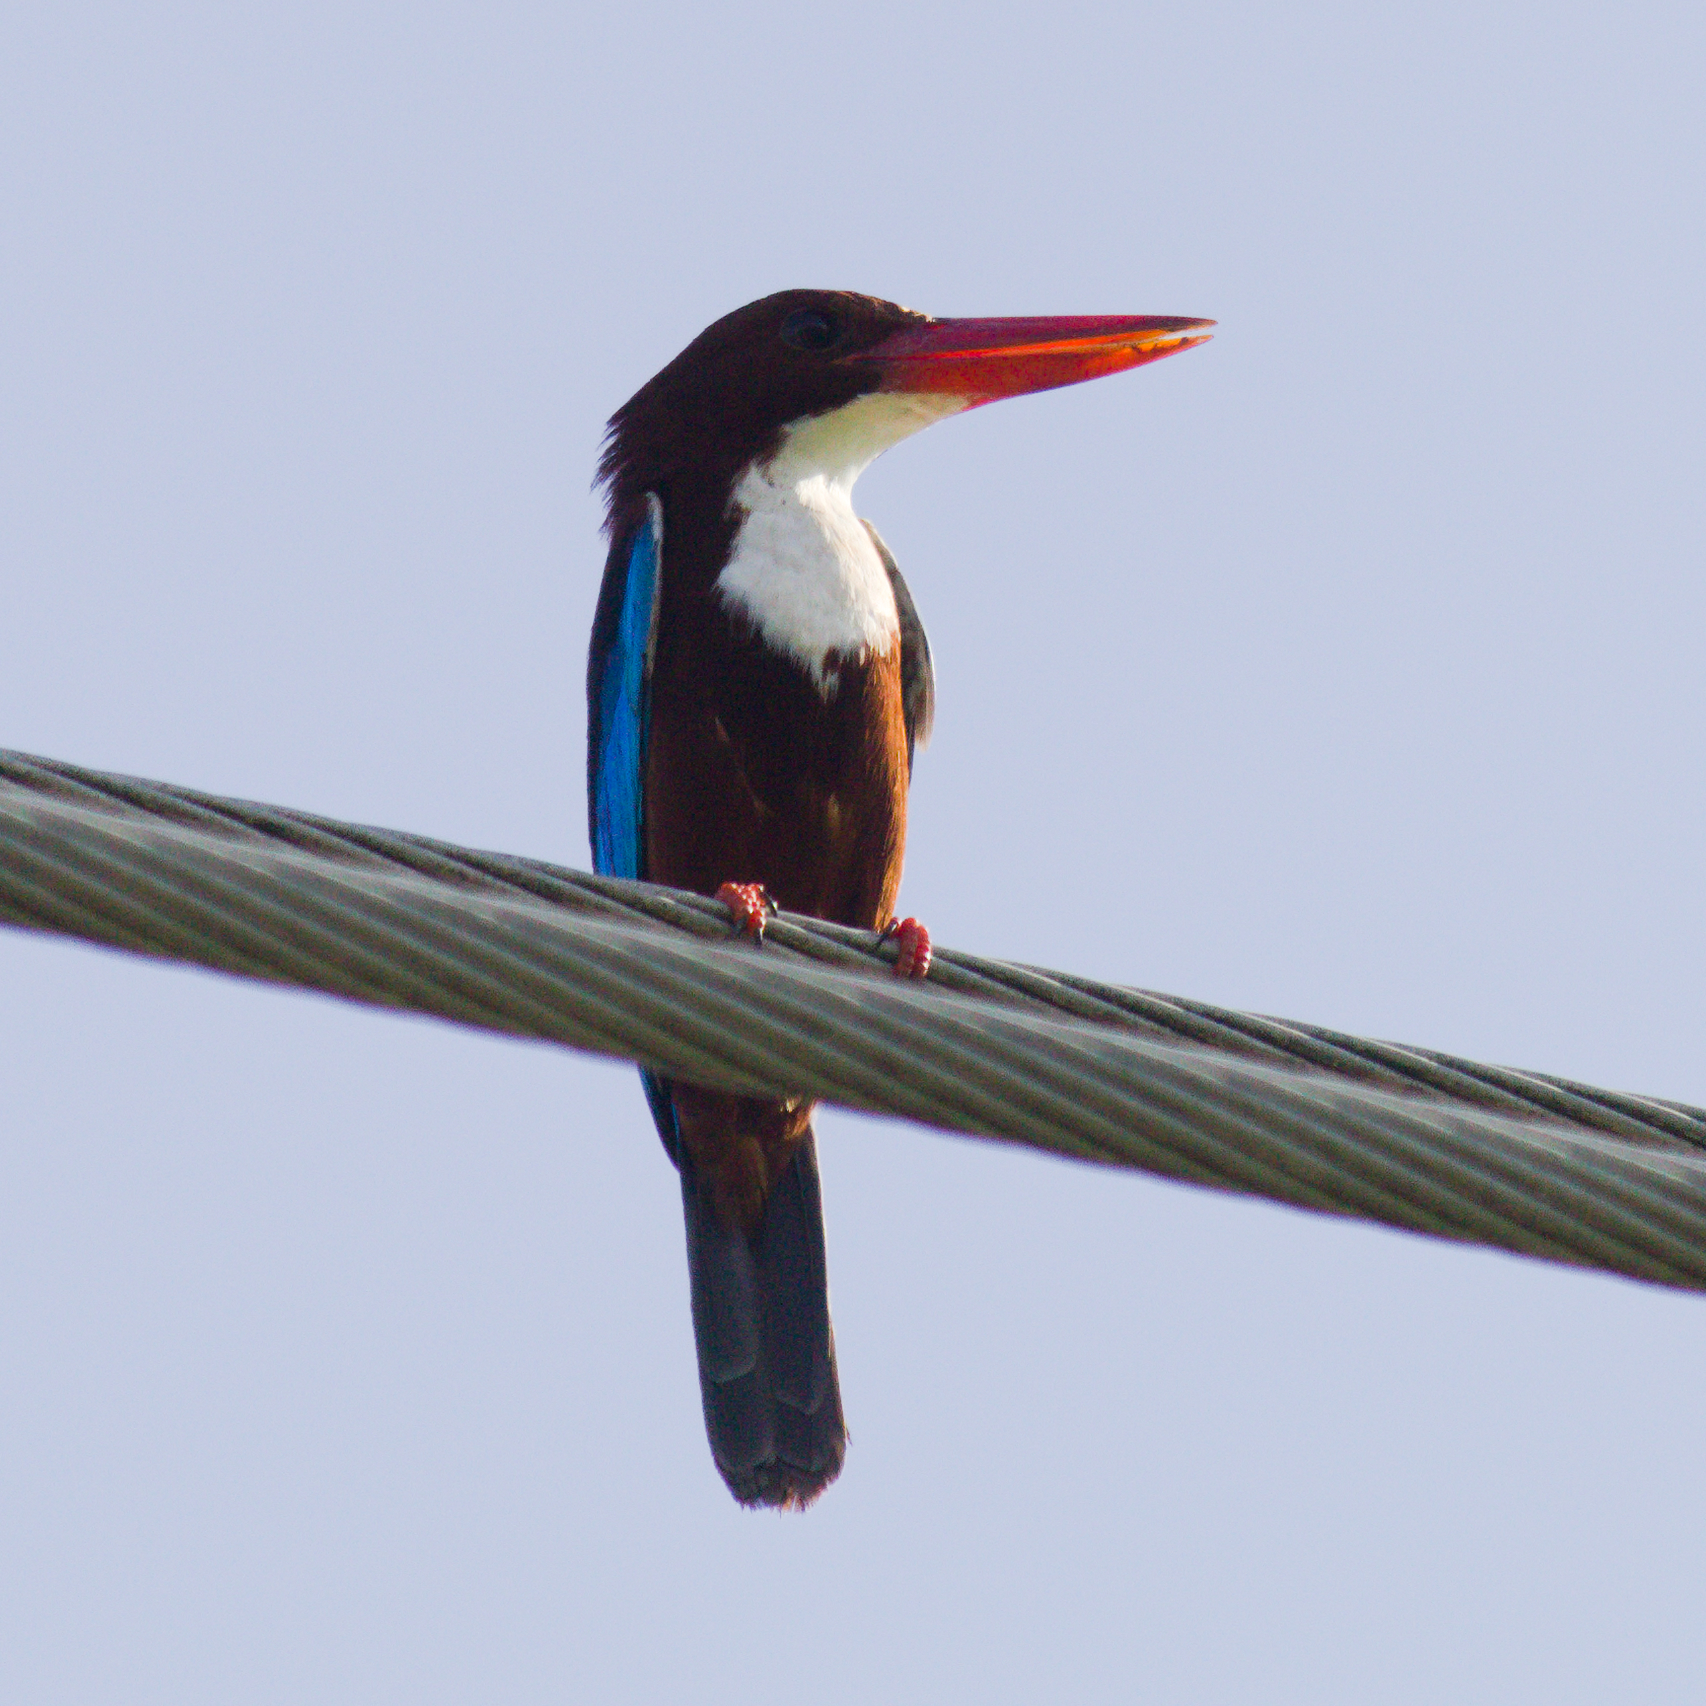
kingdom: Animalia
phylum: Chordata
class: Aves
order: Coraciiformes
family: Alcedinidae
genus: Halcyon
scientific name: Halcyon smyrnensis
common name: White-throated kingfisher
